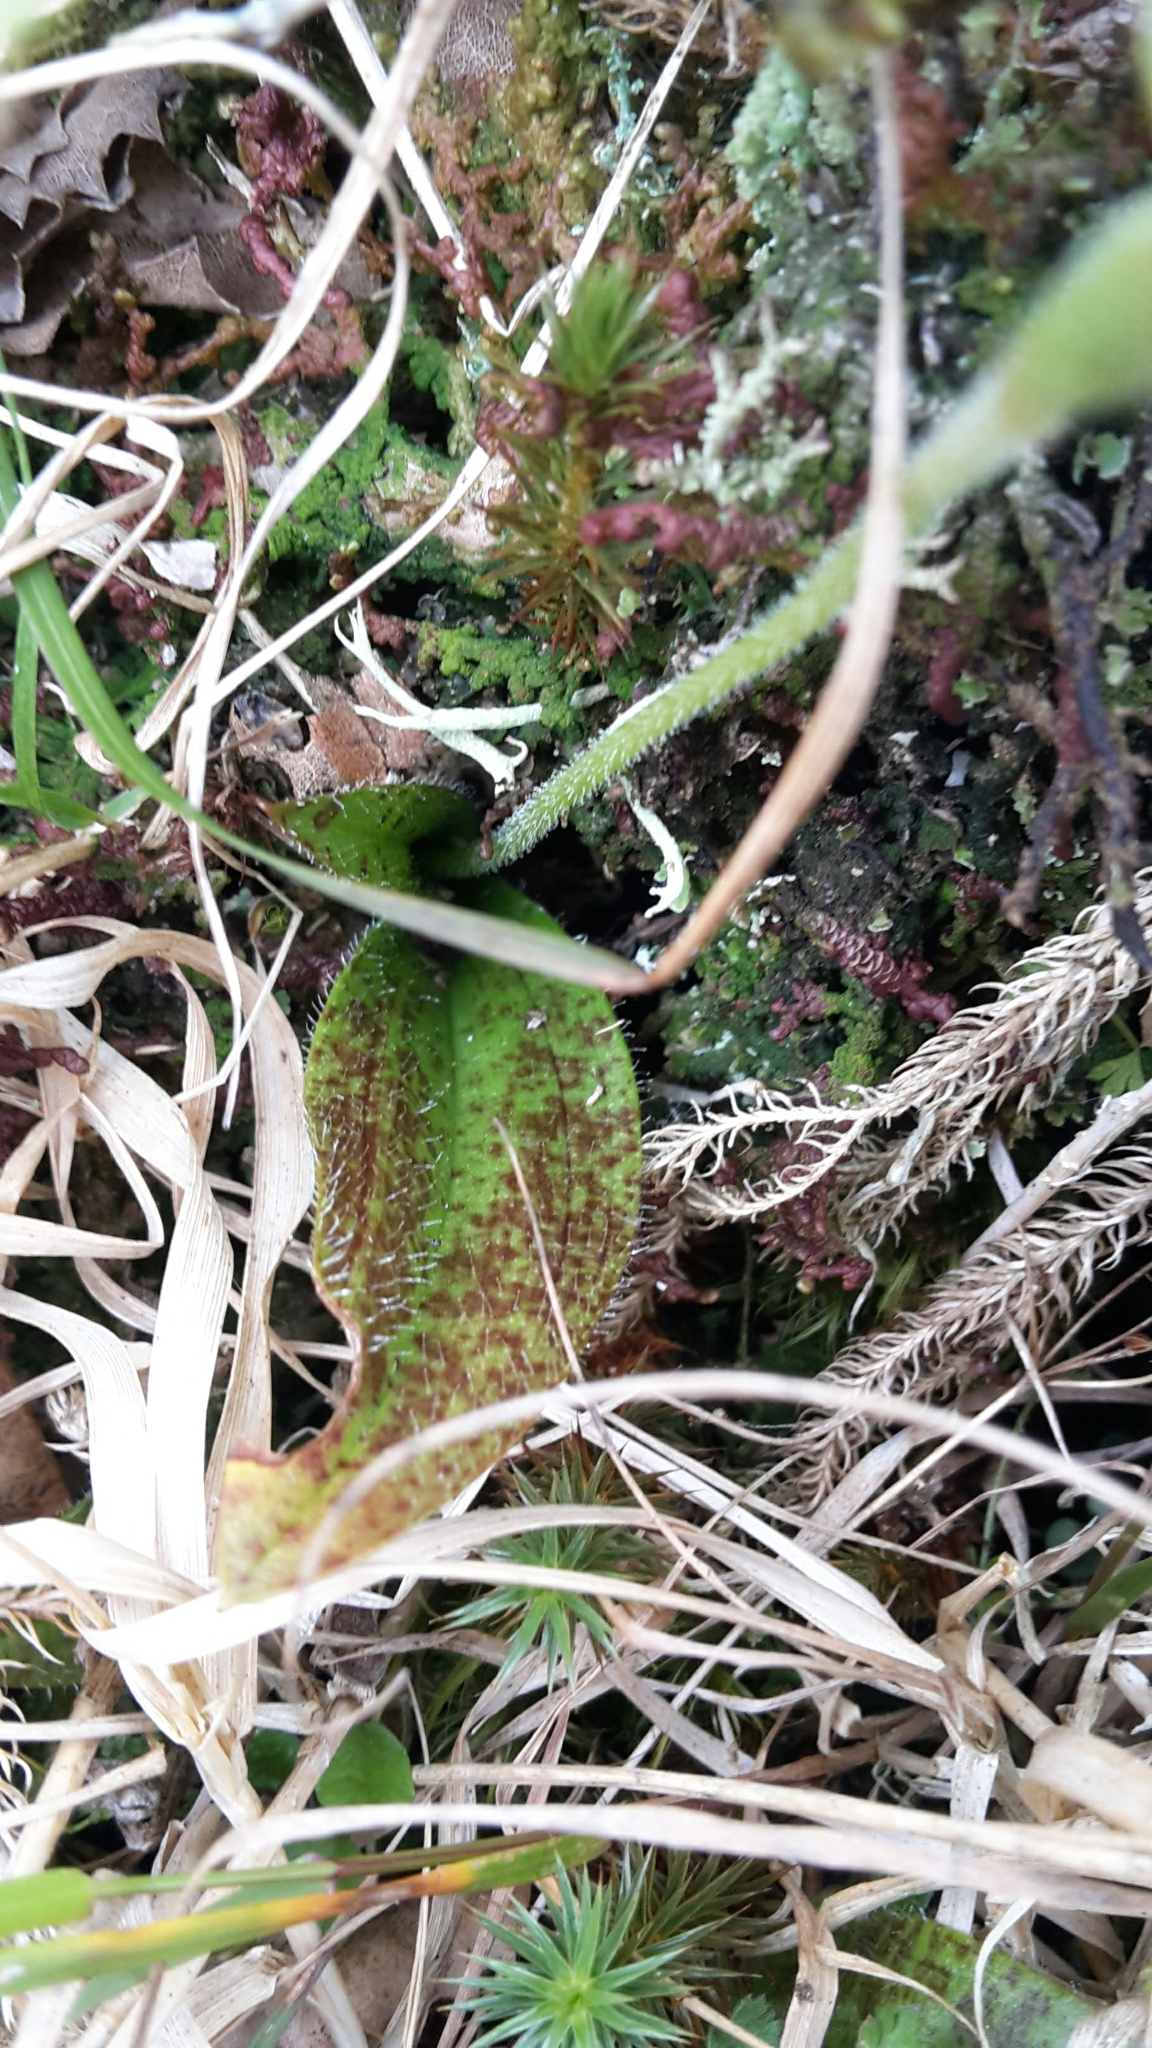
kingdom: Plantae
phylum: Tracheophyta
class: Liliopsida
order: Asparagales
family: Orchidaceae
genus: Aporostylis
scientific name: Aporostylis bifolia
